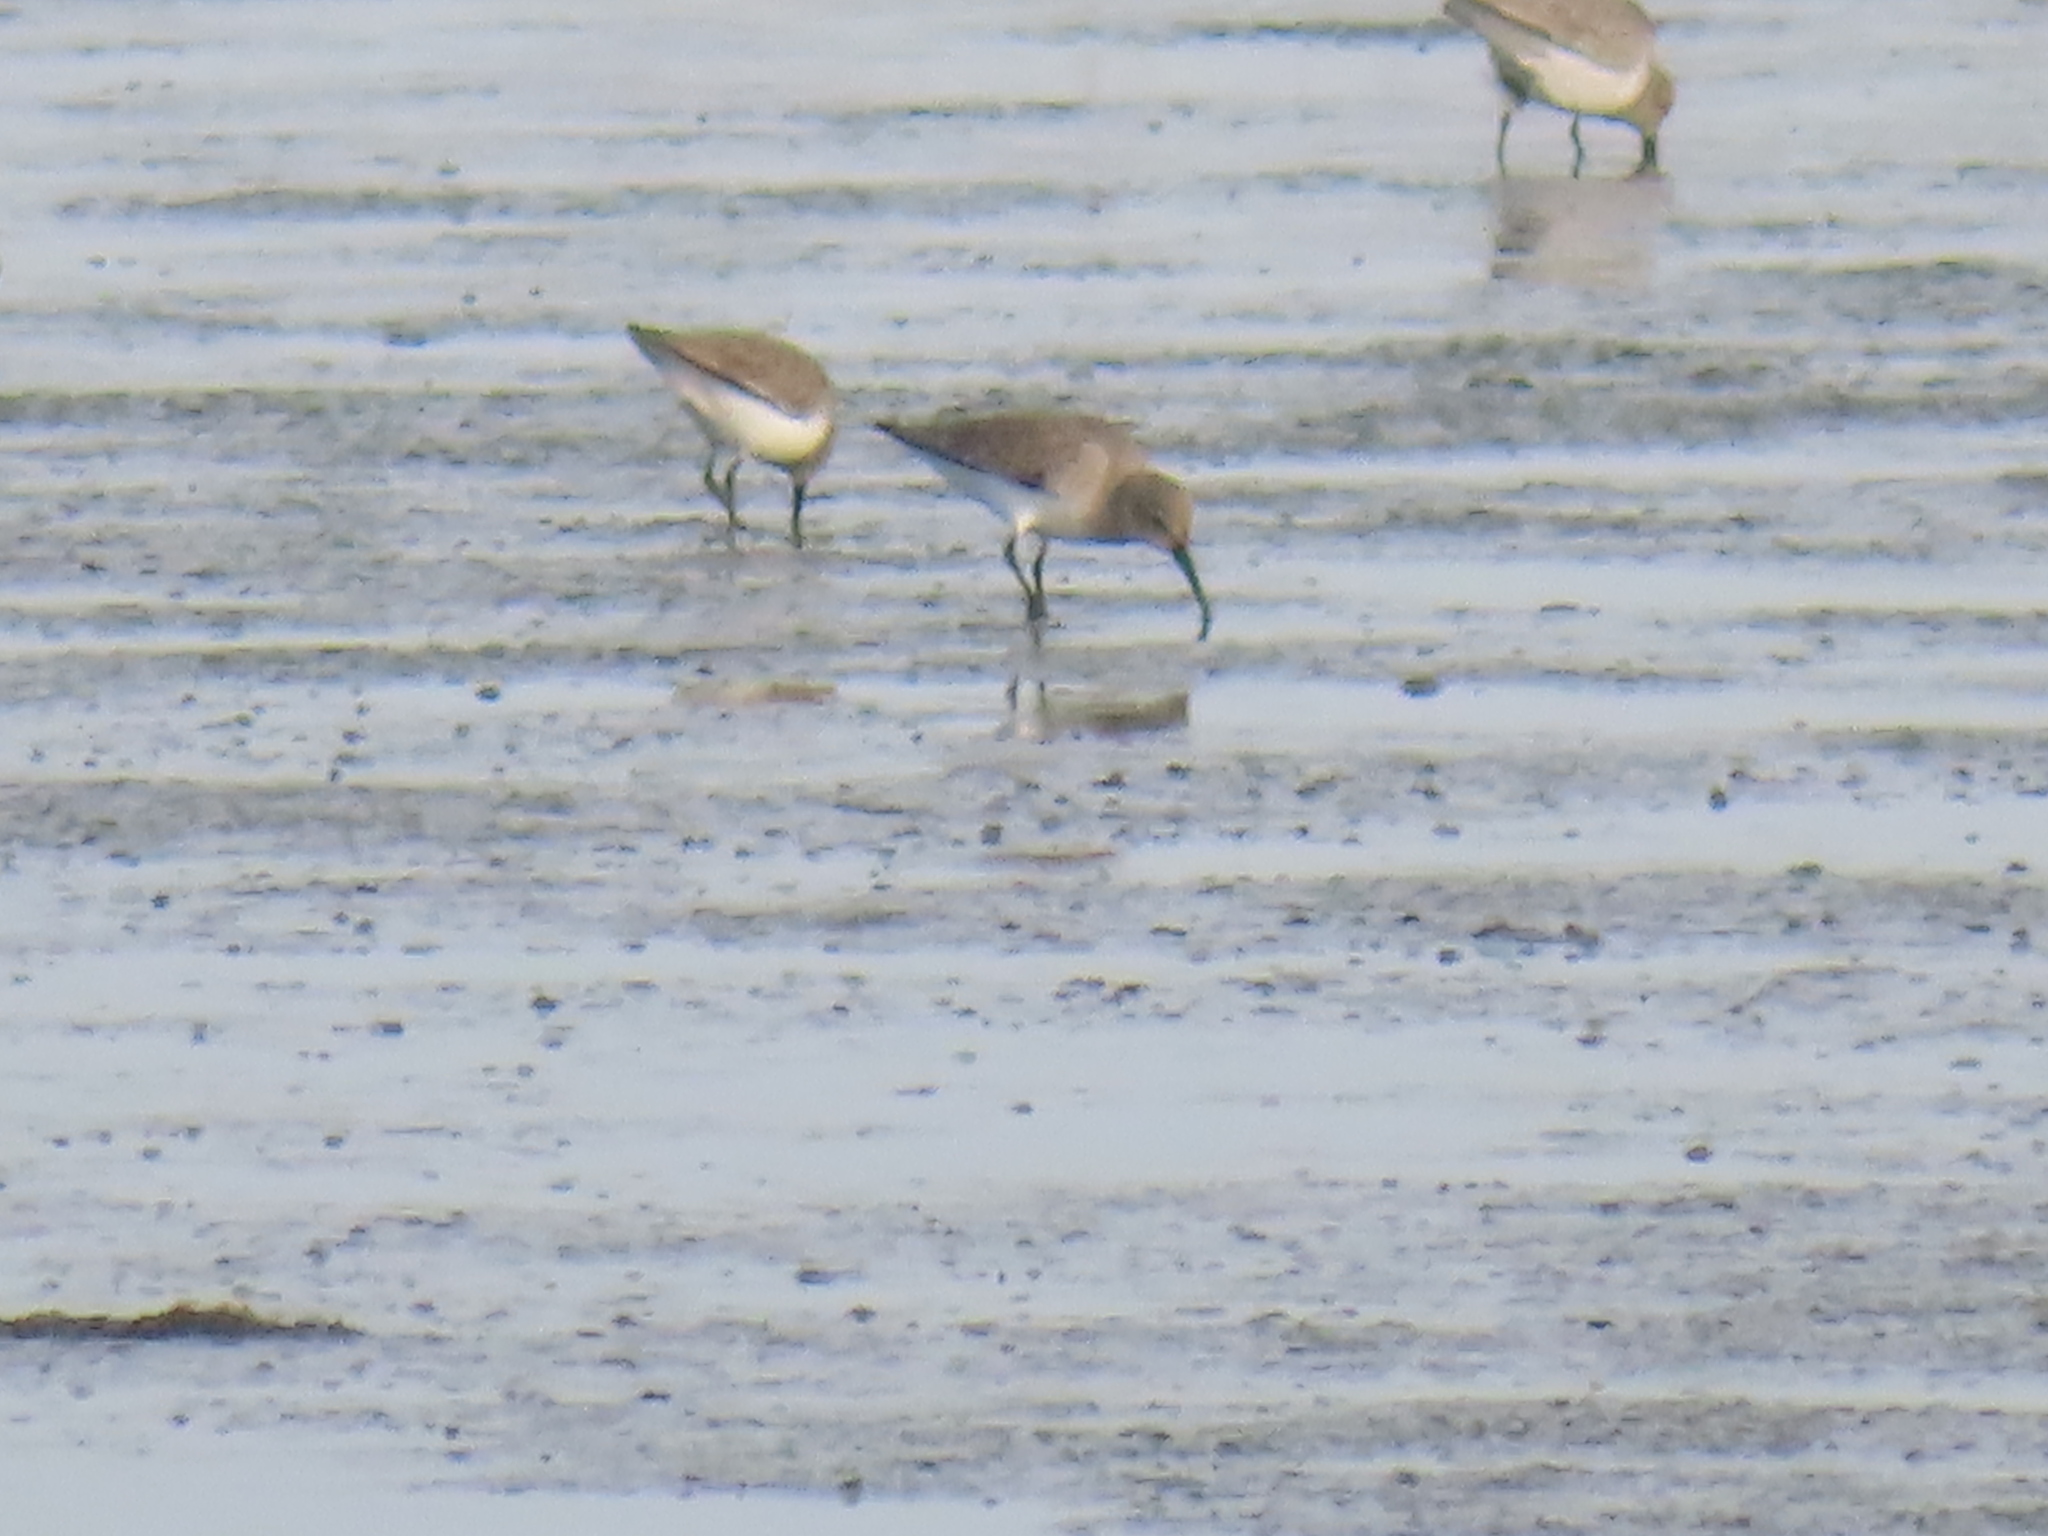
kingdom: Animalia
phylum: Chordata
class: Aves
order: Charadriiformes
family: Scolopacidae
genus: Calidris
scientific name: Calidris alpina
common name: Dunlin
